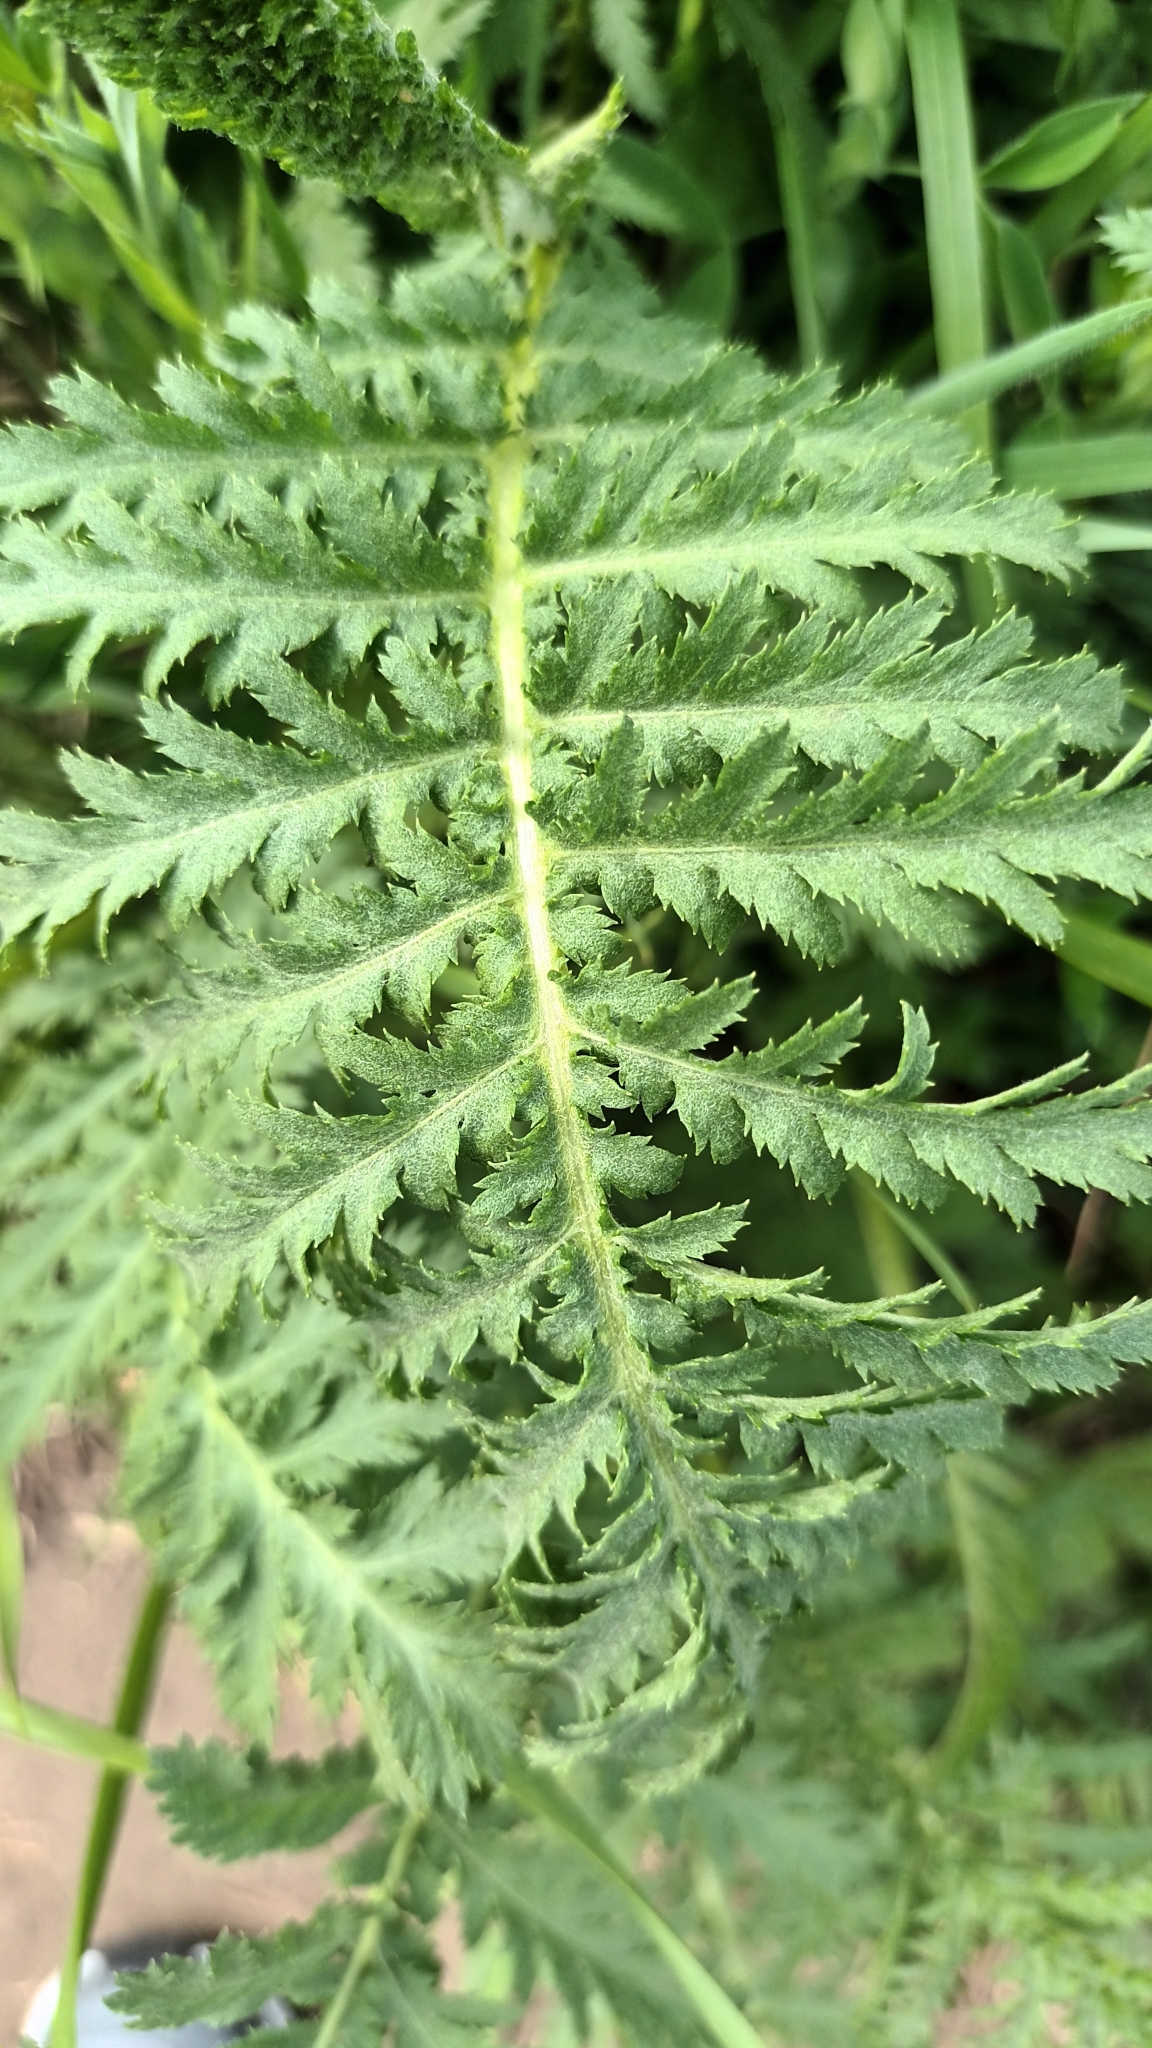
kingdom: Plantae
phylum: Tracheophyta
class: Magnoliopsida
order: Asterales
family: Asteraceae
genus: Tanacetum
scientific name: Tanacetum vulgare
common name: Common tansy
